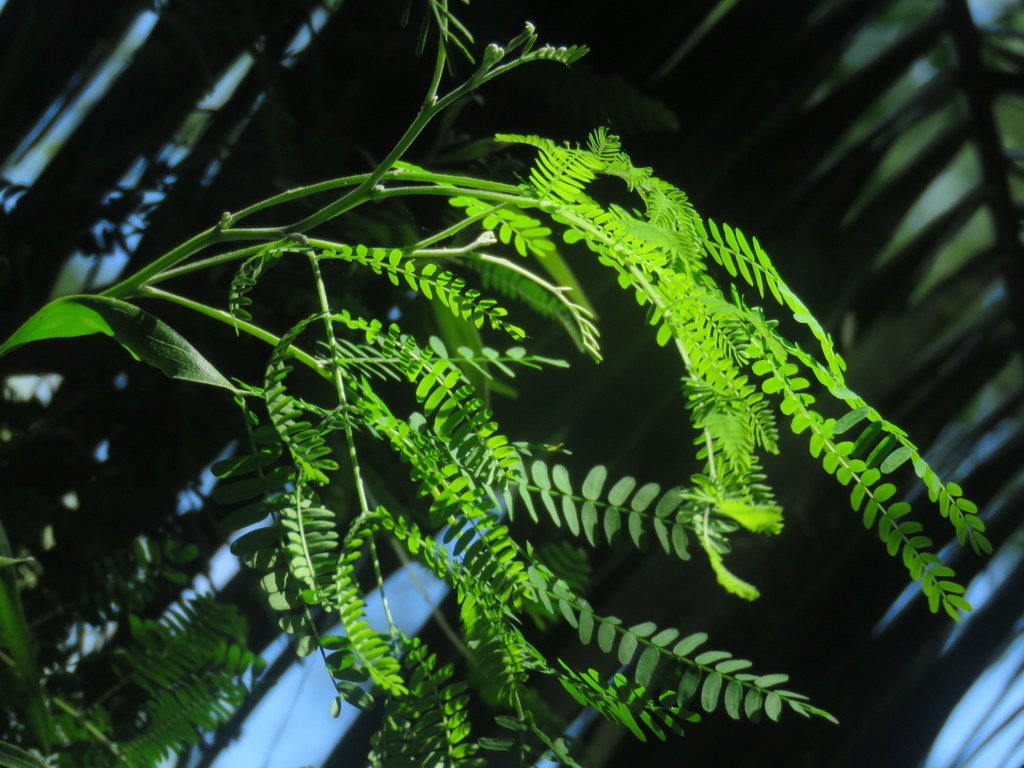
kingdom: Plantae
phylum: Tracheophyta
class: Magnoliopsida
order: Fabales
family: Fabaceae
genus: Acacia
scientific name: Acacia melanoxylon
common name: Blackwood
